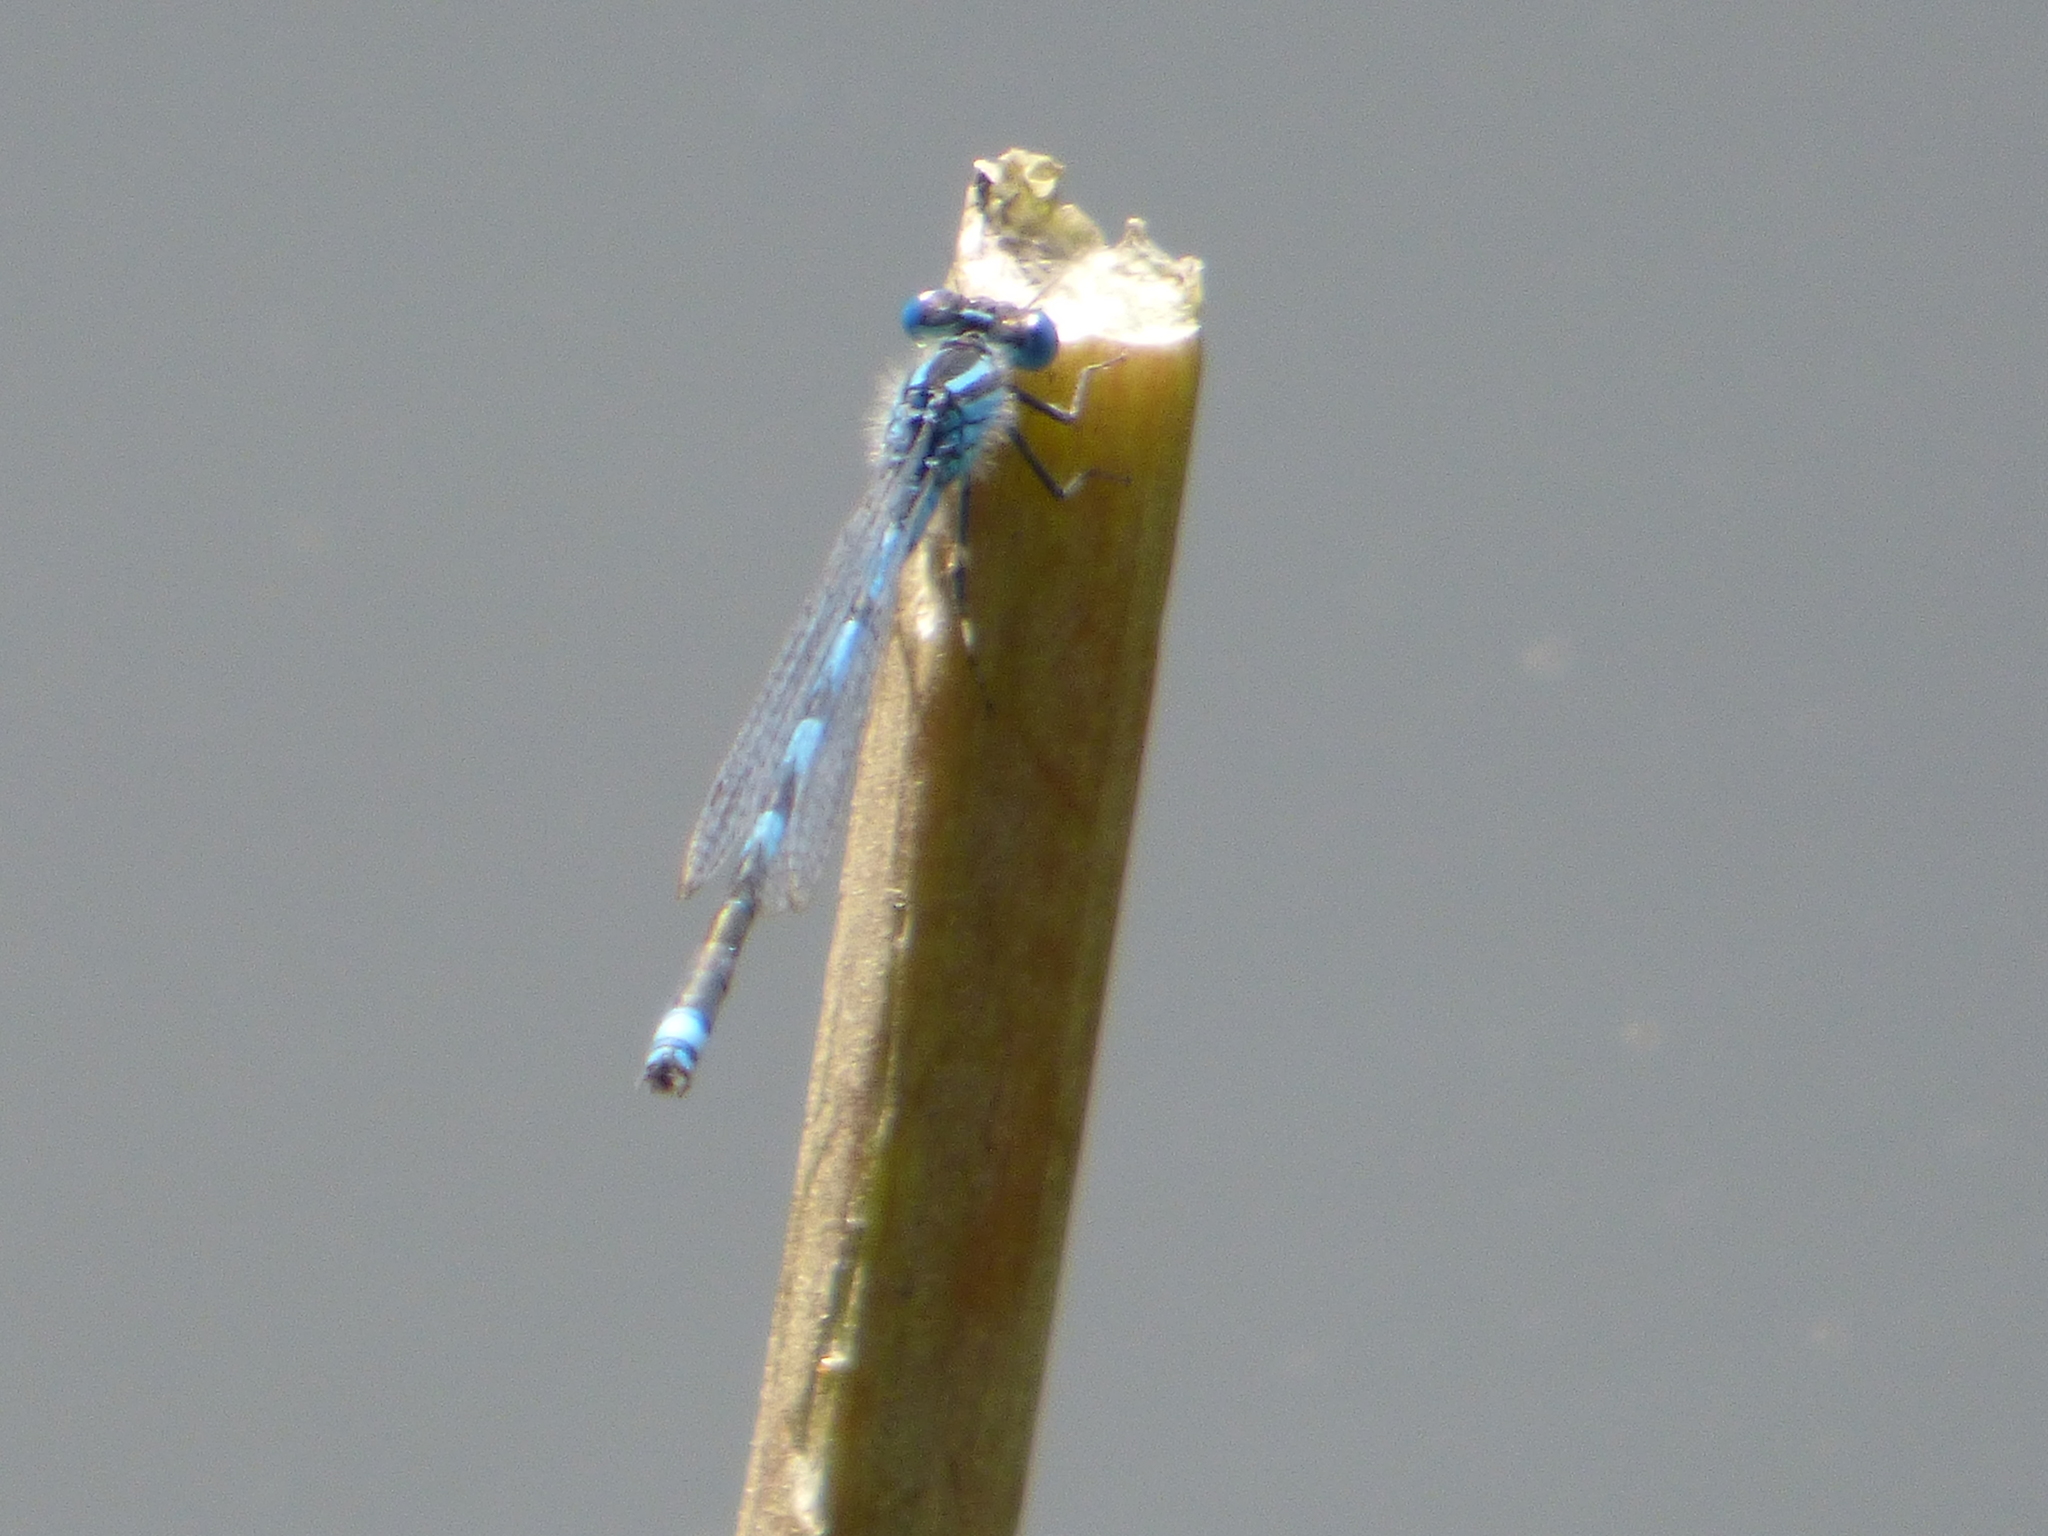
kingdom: Animalia
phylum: Arthropoda
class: Insecta
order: Odonata
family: Coenagrionidae
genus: Erythromma
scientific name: Erythromma lindenii
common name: Blue-eye
